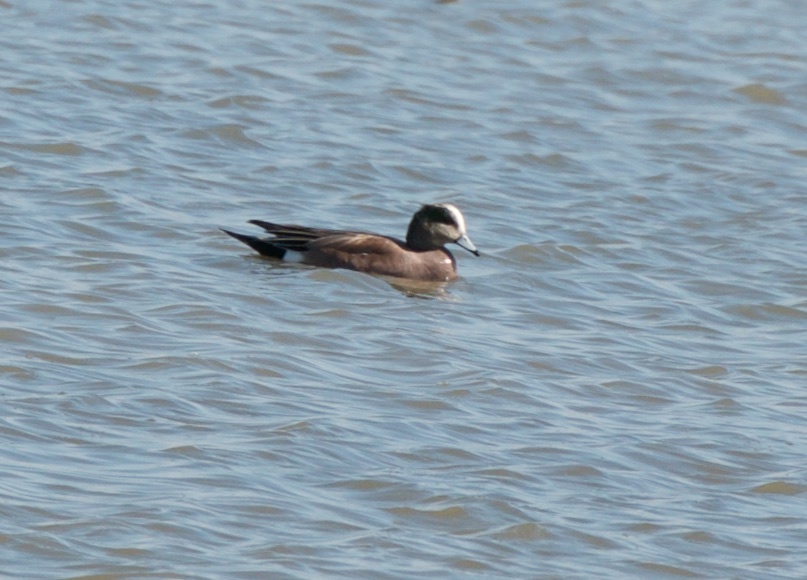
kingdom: Animalia
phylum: Chordata
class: Aves
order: Anseriformes
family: Anatidae
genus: Mareca
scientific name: Mareca americana
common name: American wigeon
